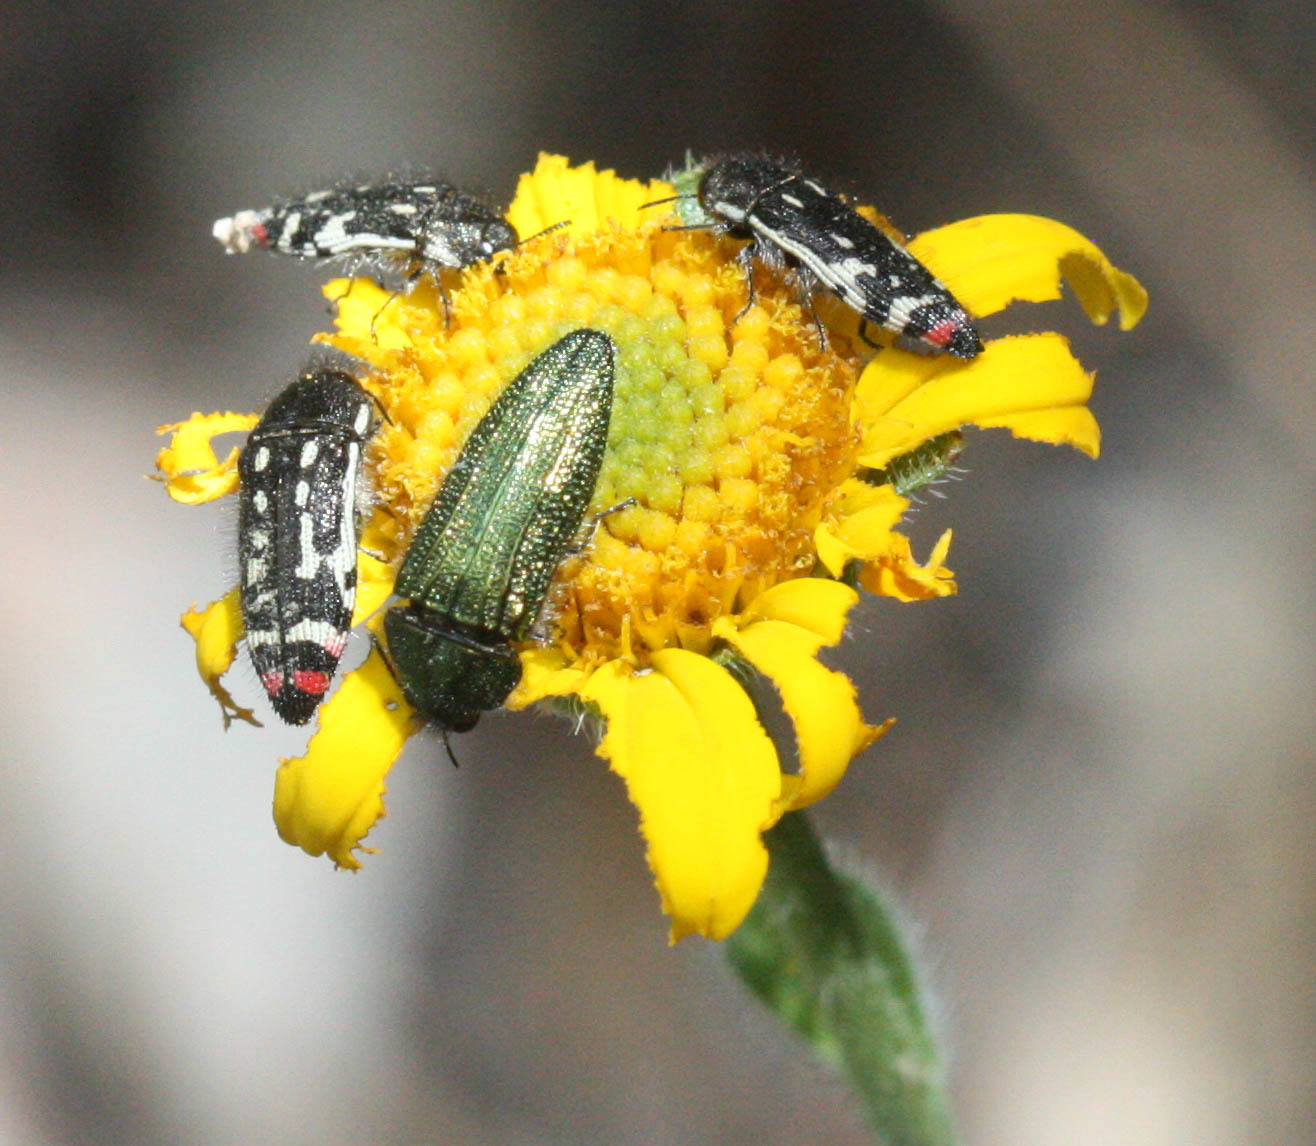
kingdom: Animalia
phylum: Arthropoda
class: Insecta
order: Coleoptera
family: Buprestidae
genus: Acmaeodera
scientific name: Acmaeodera resplendens
